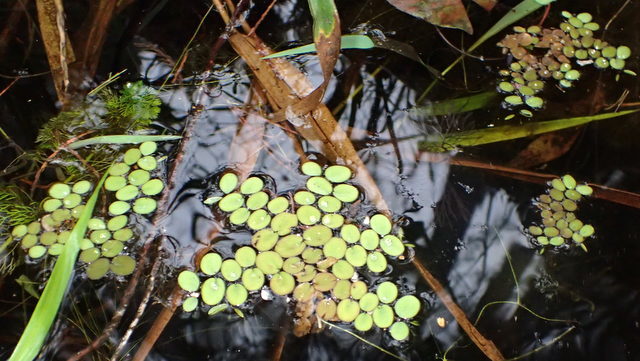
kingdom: Plantae
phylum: Tracheophyta
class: Polypodiopsida
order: Salviniales
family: Salviniaceae
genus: Salvinia
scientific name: Salvinia minima
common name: Water spangles
